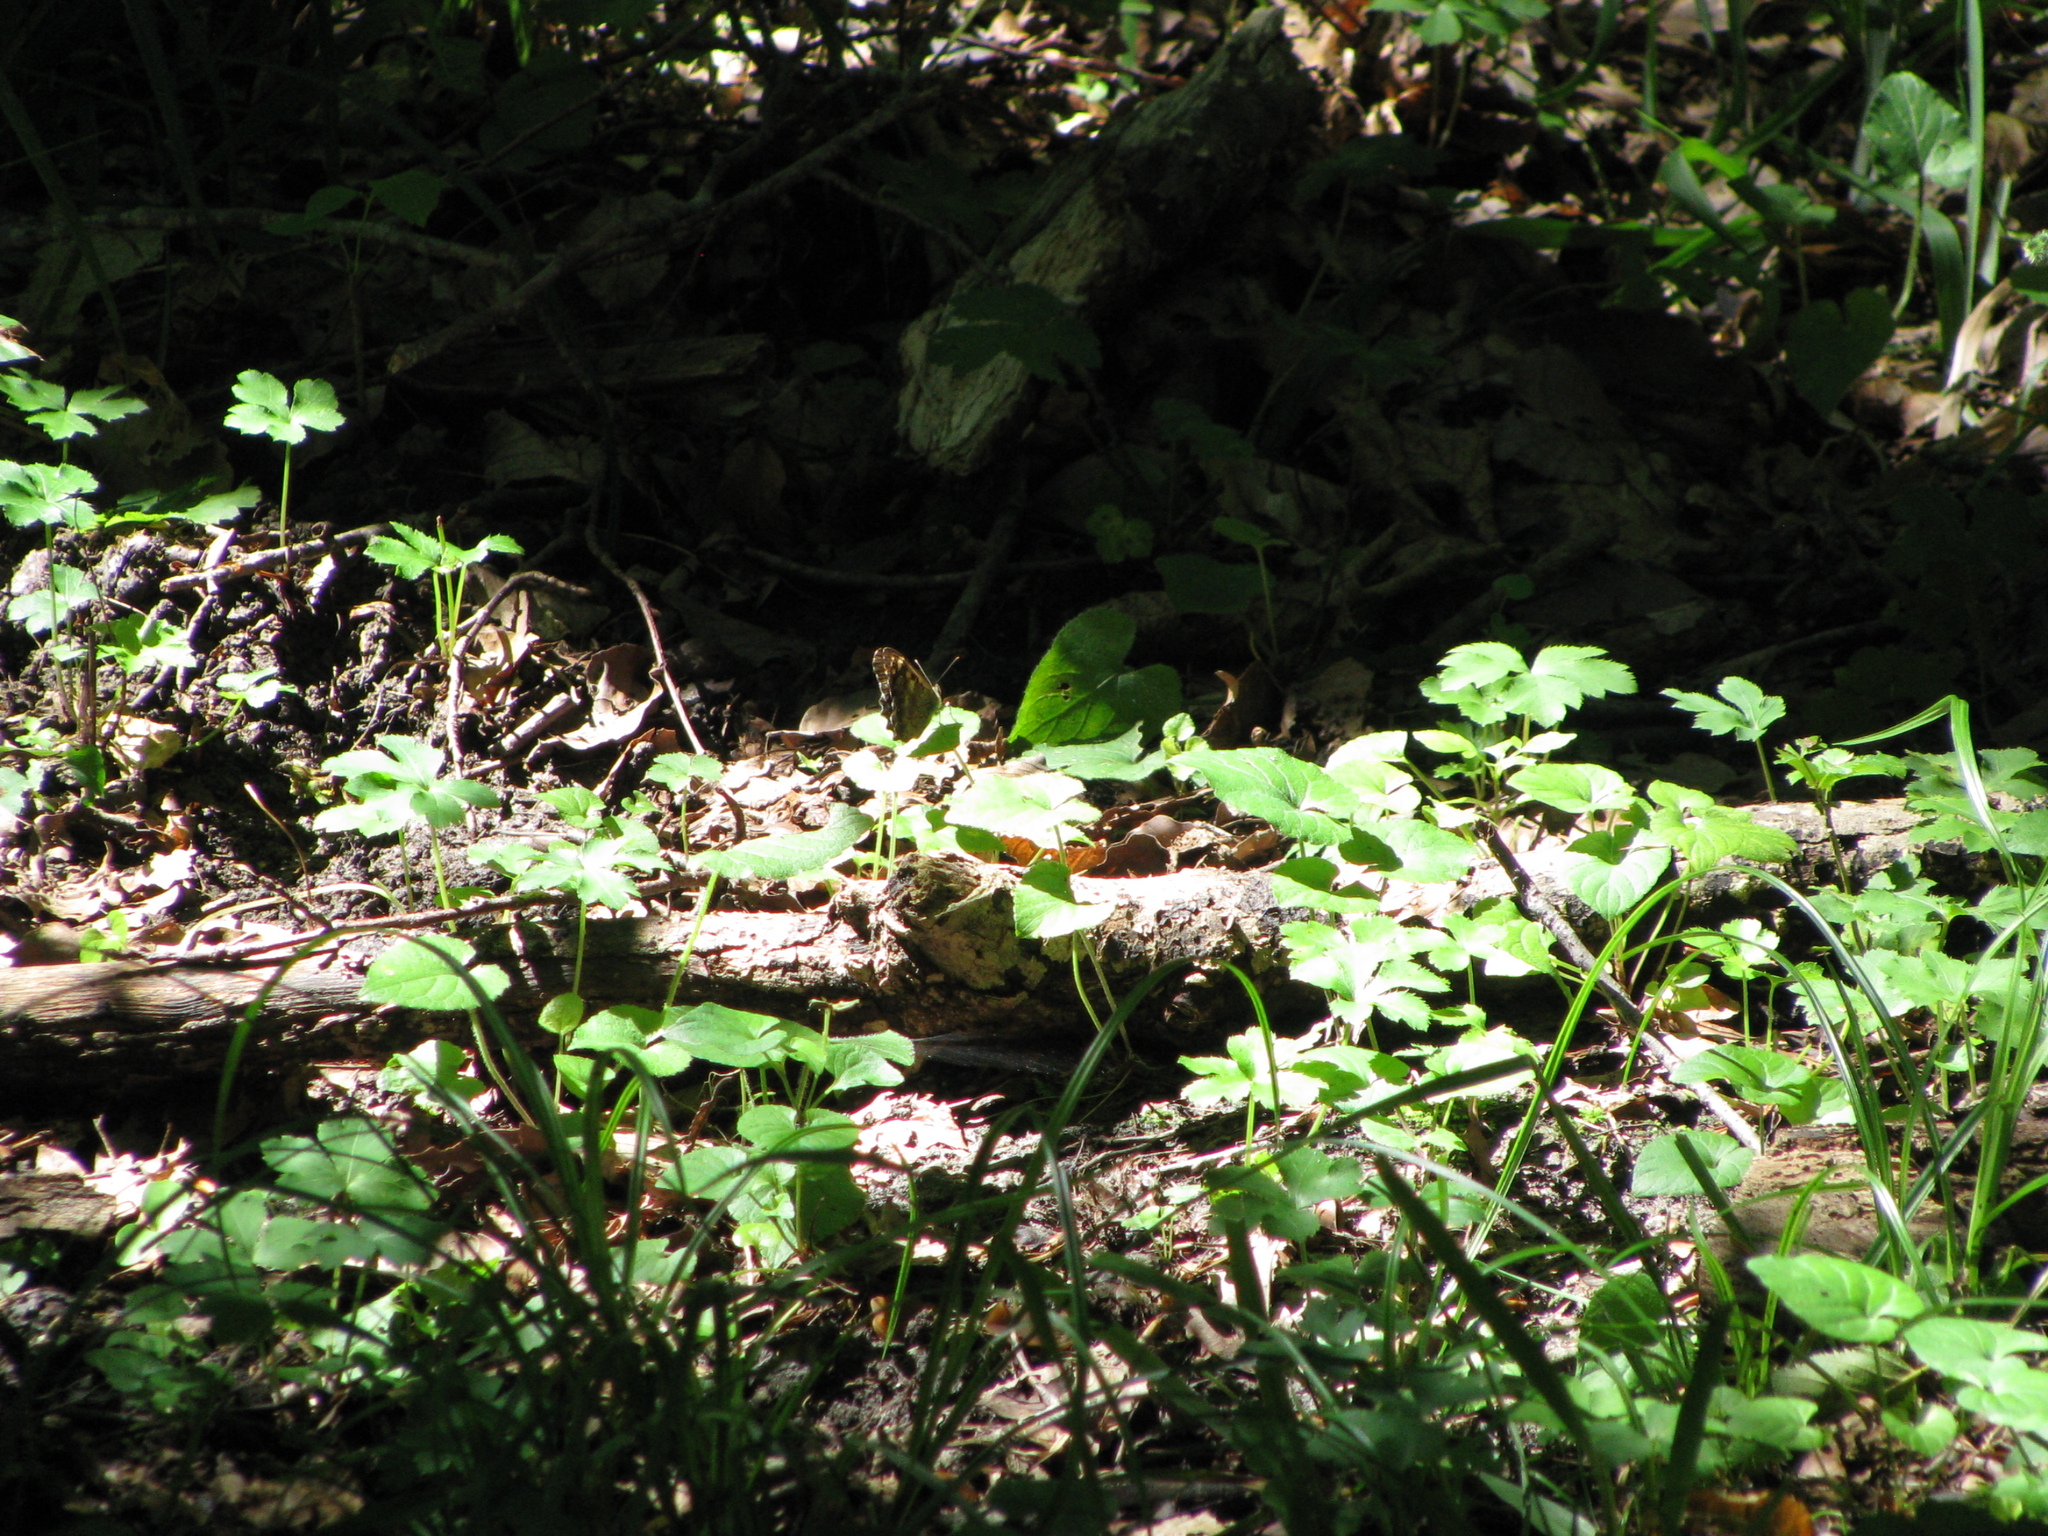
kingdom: Animalia
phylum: Arthropoda
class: Insecta
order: Lepidoptera
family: Nymphalidae
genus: Pararge
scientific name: Pararge aegeria
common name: Speckled wood
